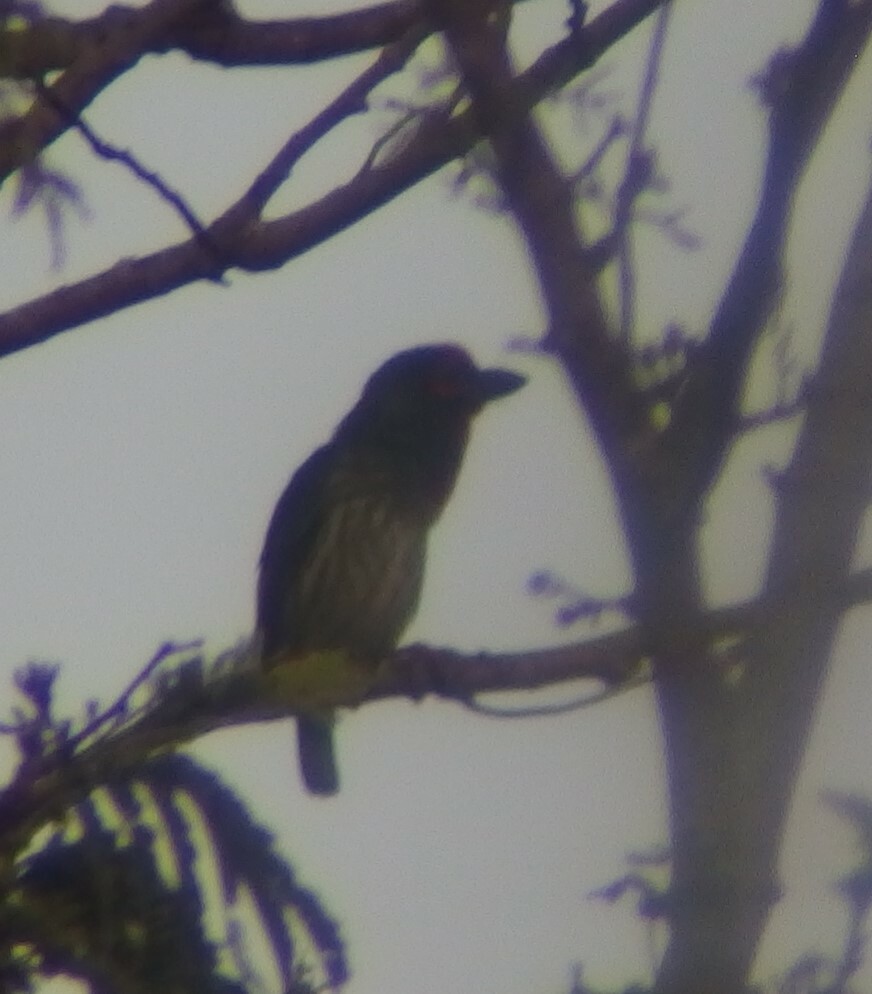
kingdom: Animalia
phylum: Chordata
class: Aves
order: Piciformes
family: Megalaimidae
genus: Psilopogon
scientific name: Psilopogon haemacephalus
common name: Coppersmith barbet
